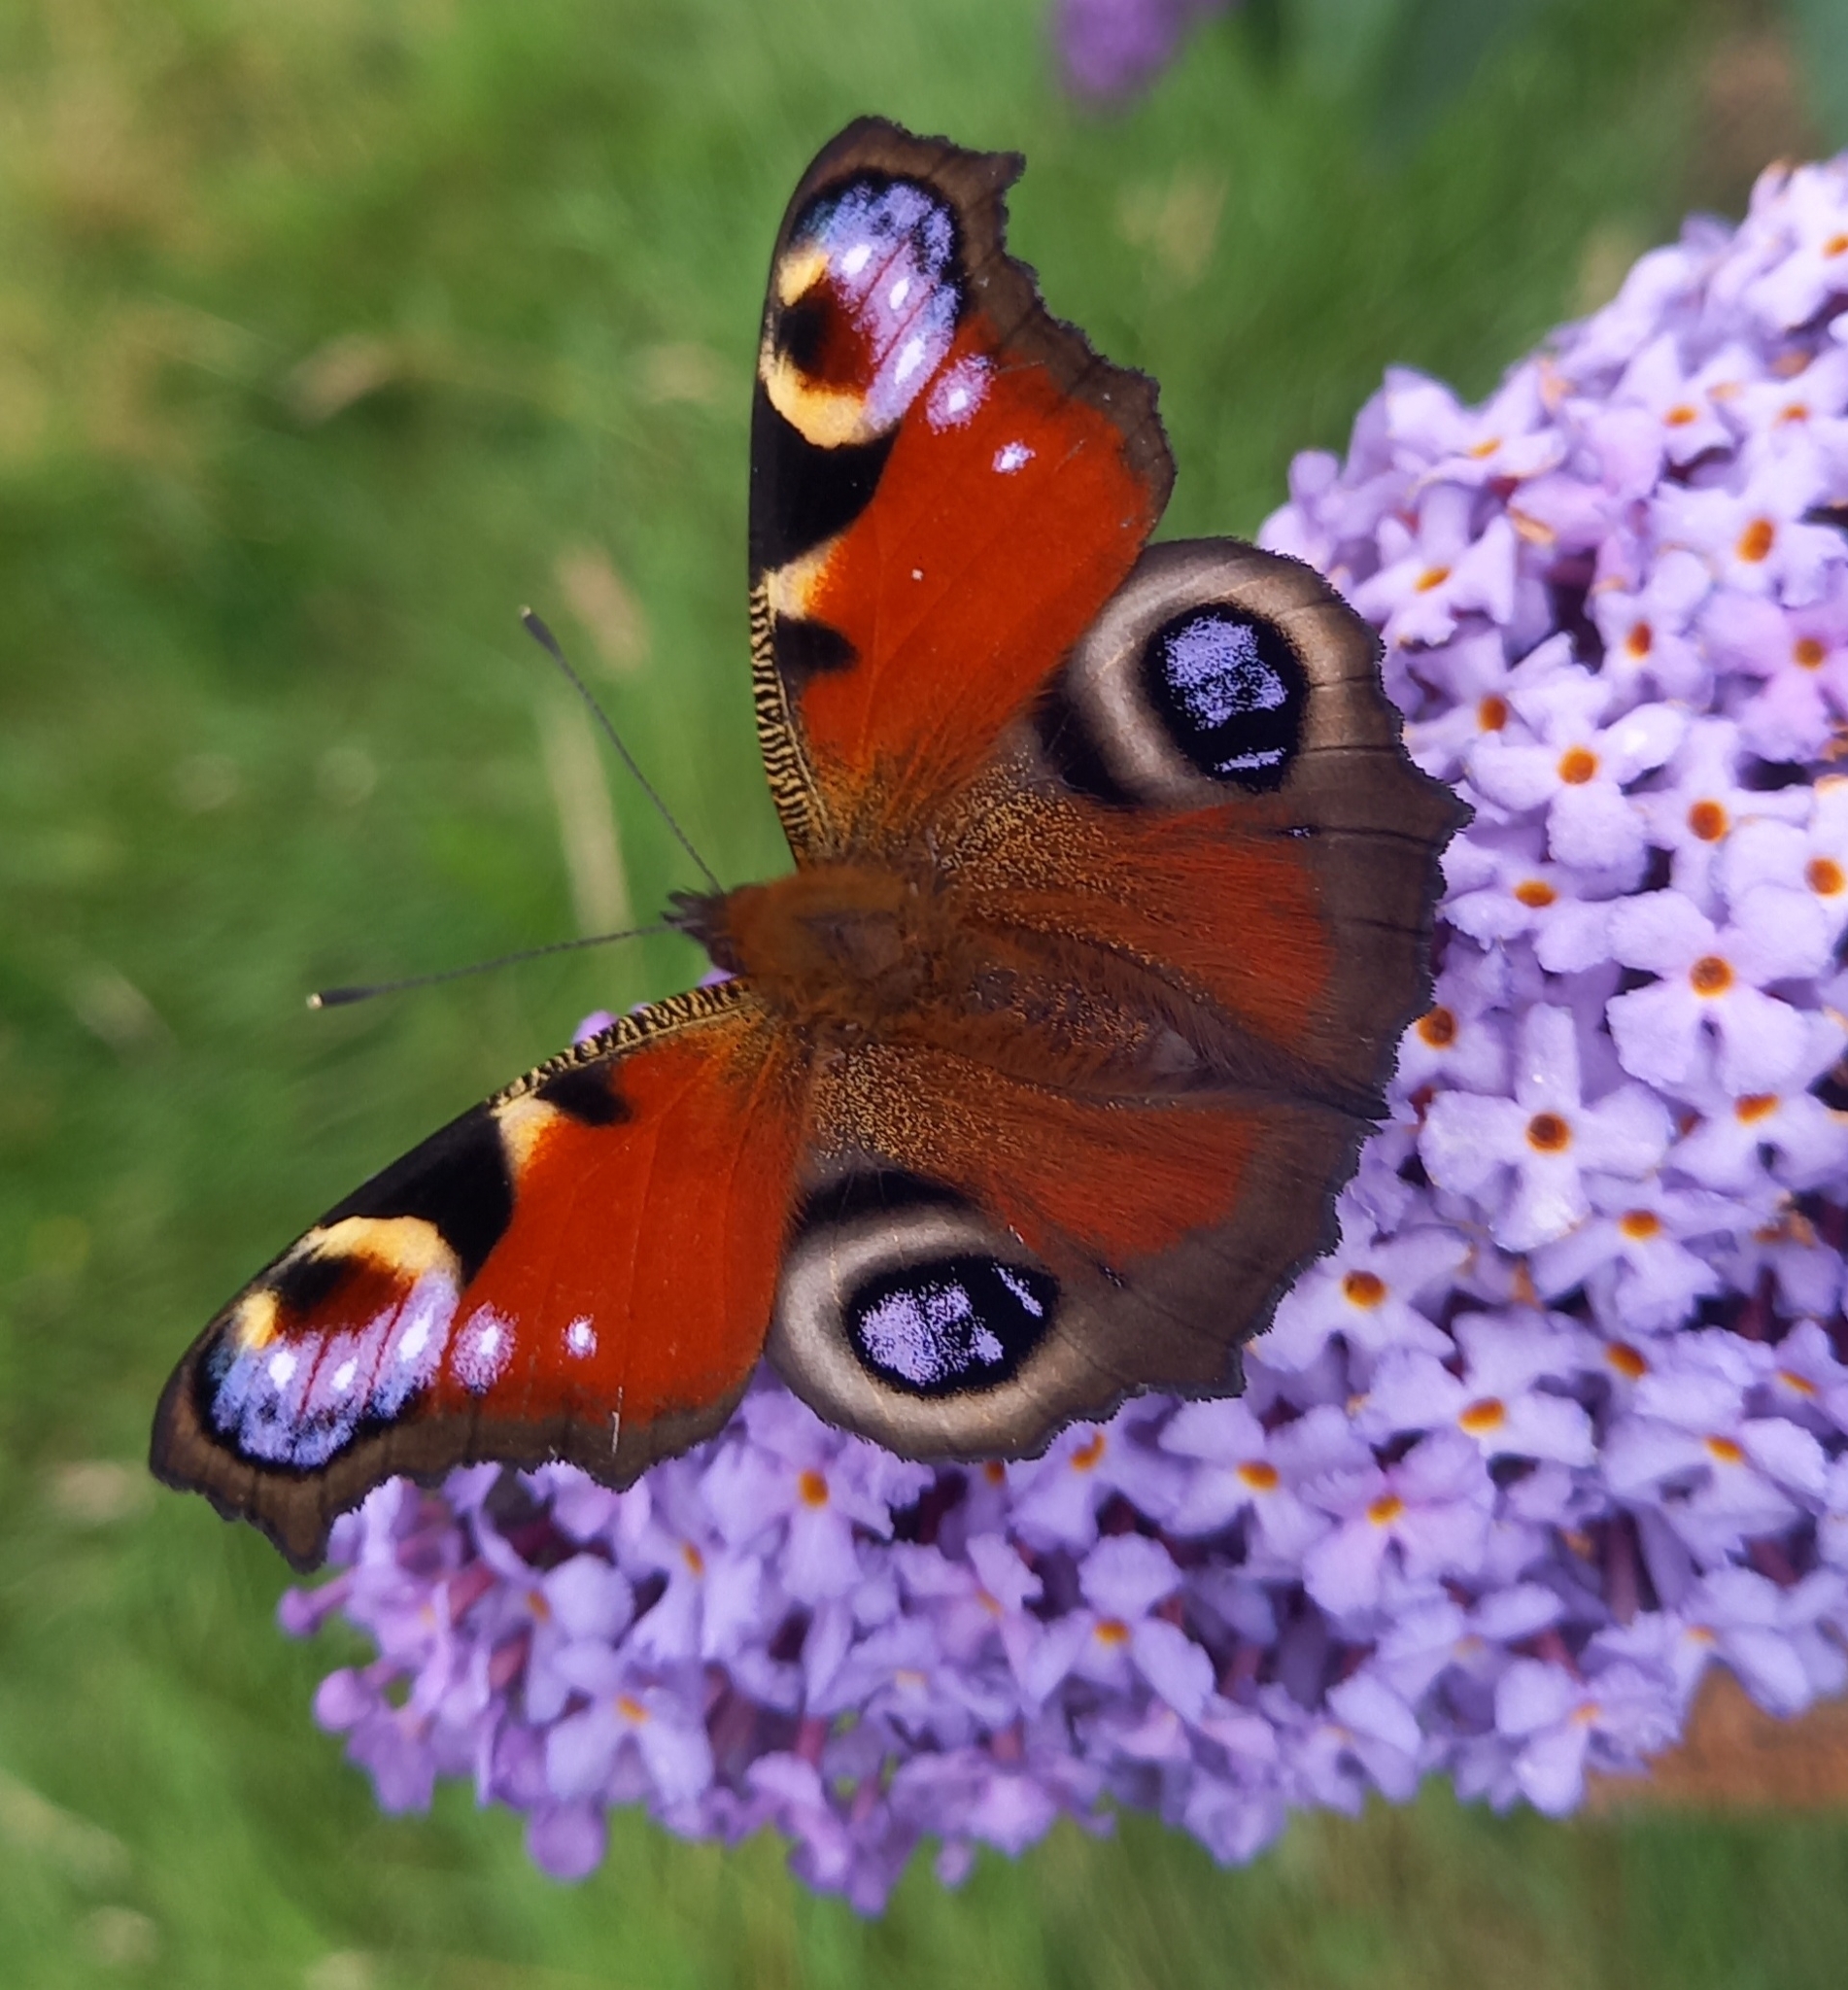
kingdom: Animalia
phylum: Arthropoda
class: Insecta
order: Lepidoptera
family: Nymphalidae
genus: Aglais
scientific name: Aglais io
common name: Peacock
